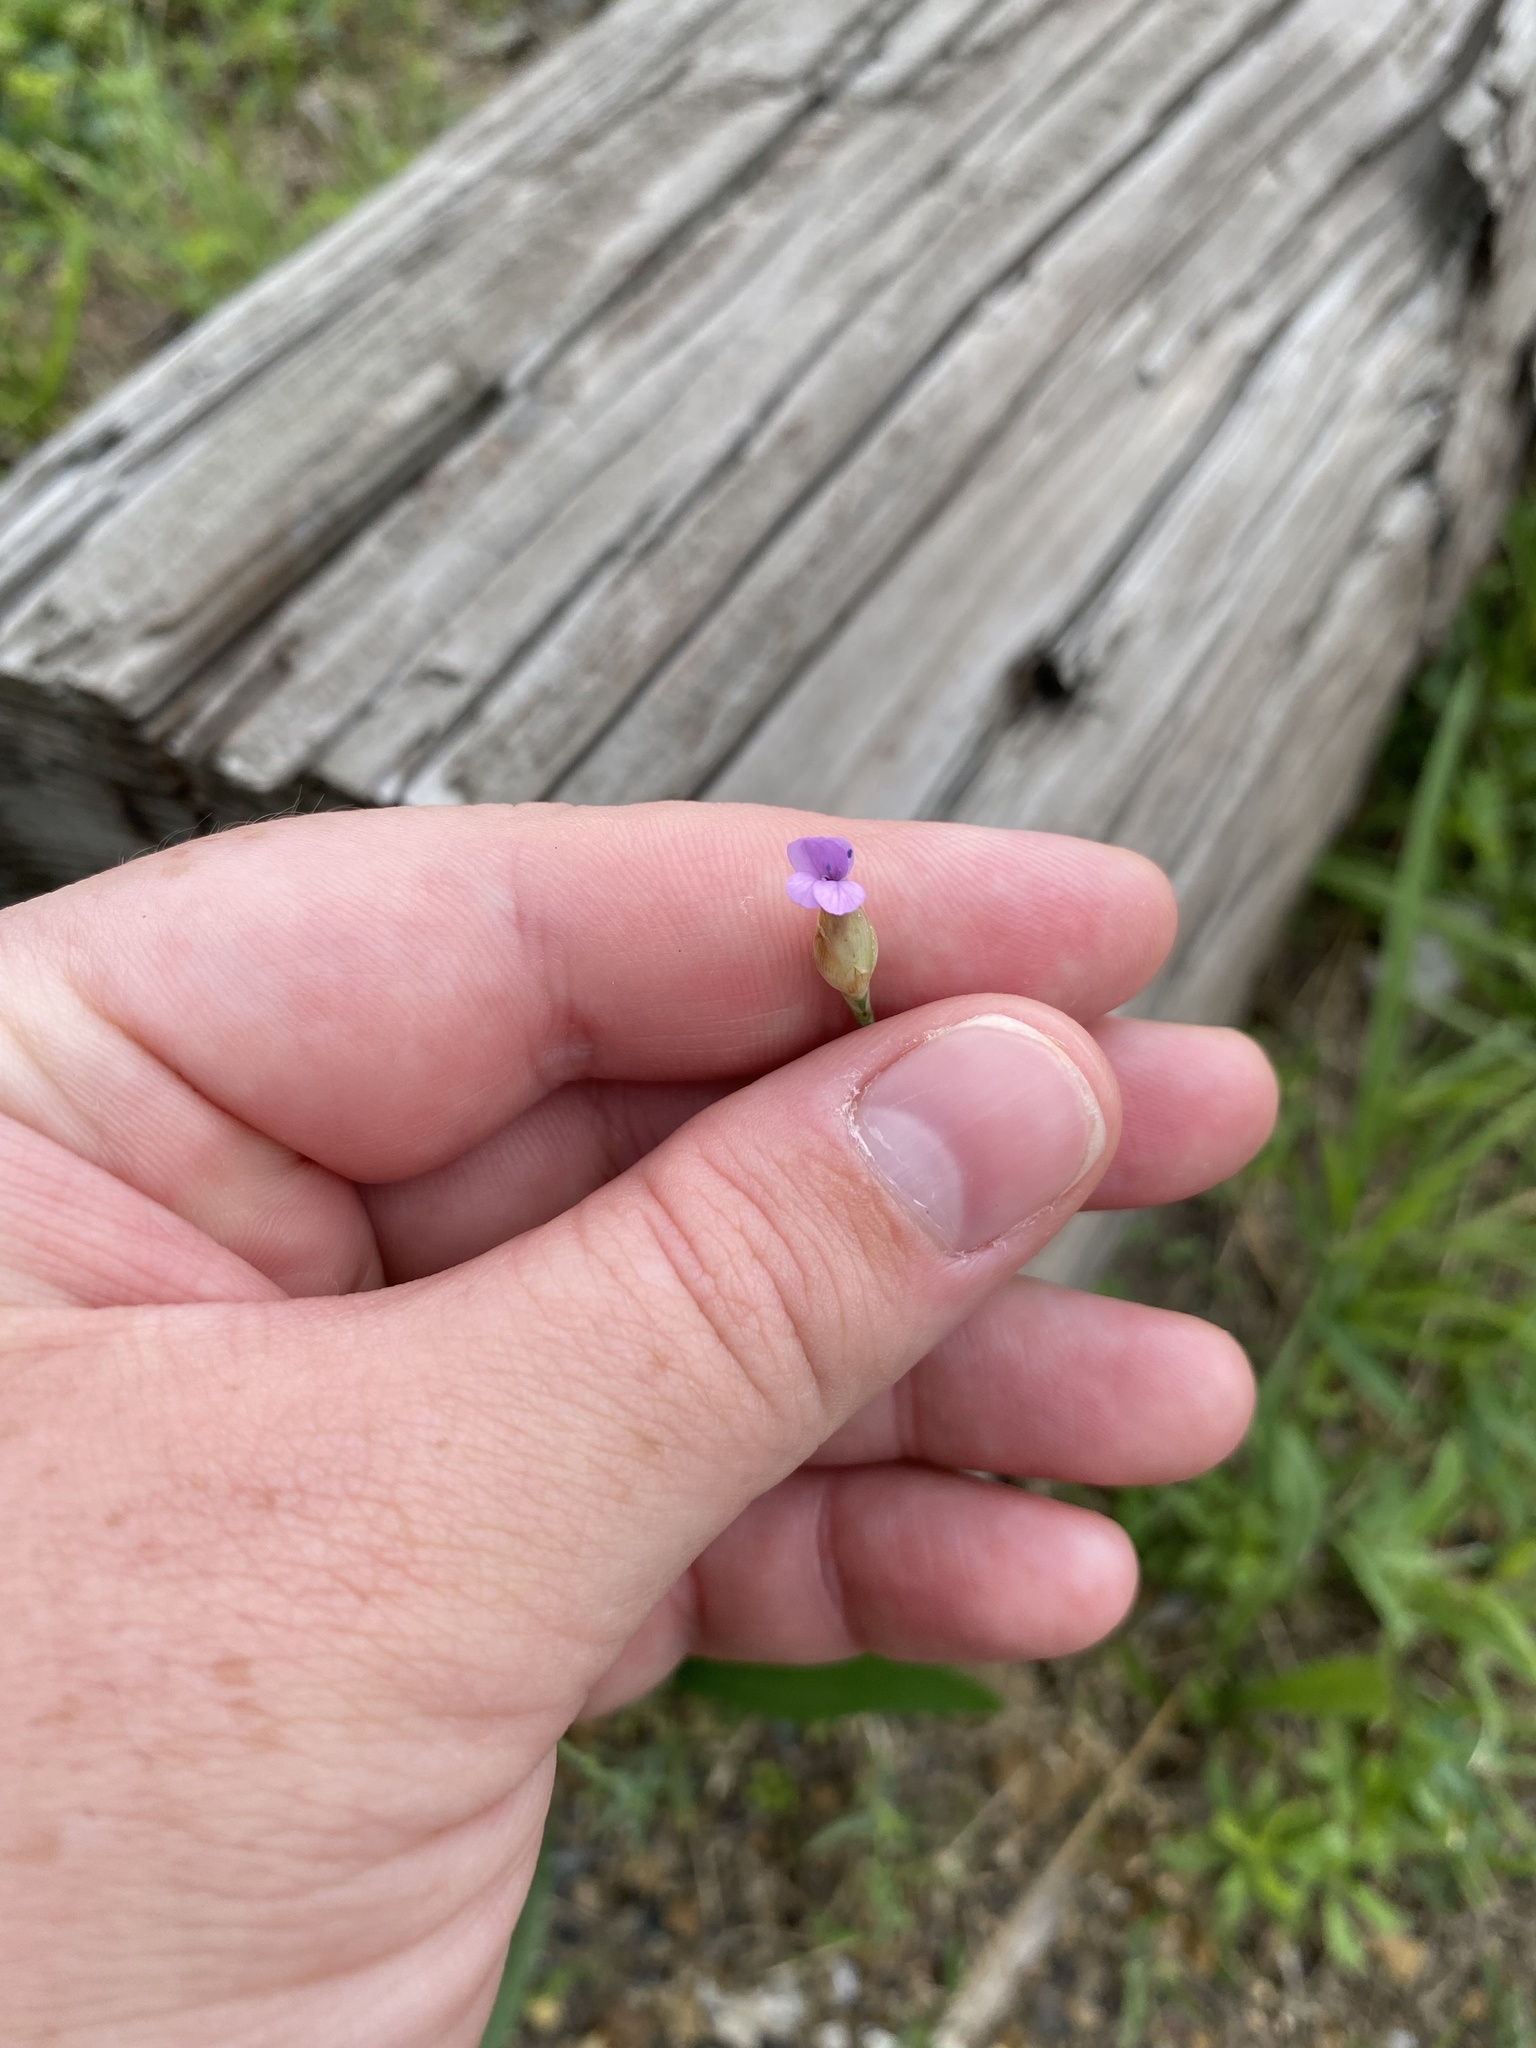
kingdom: Plantae
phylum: Tracheophyta
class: Magnoliopsida
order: Caryophyllales
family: Caryophyllaceae
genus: Petrorhagia
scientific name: Petrorhagia prolifera
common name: Proliferous pink
